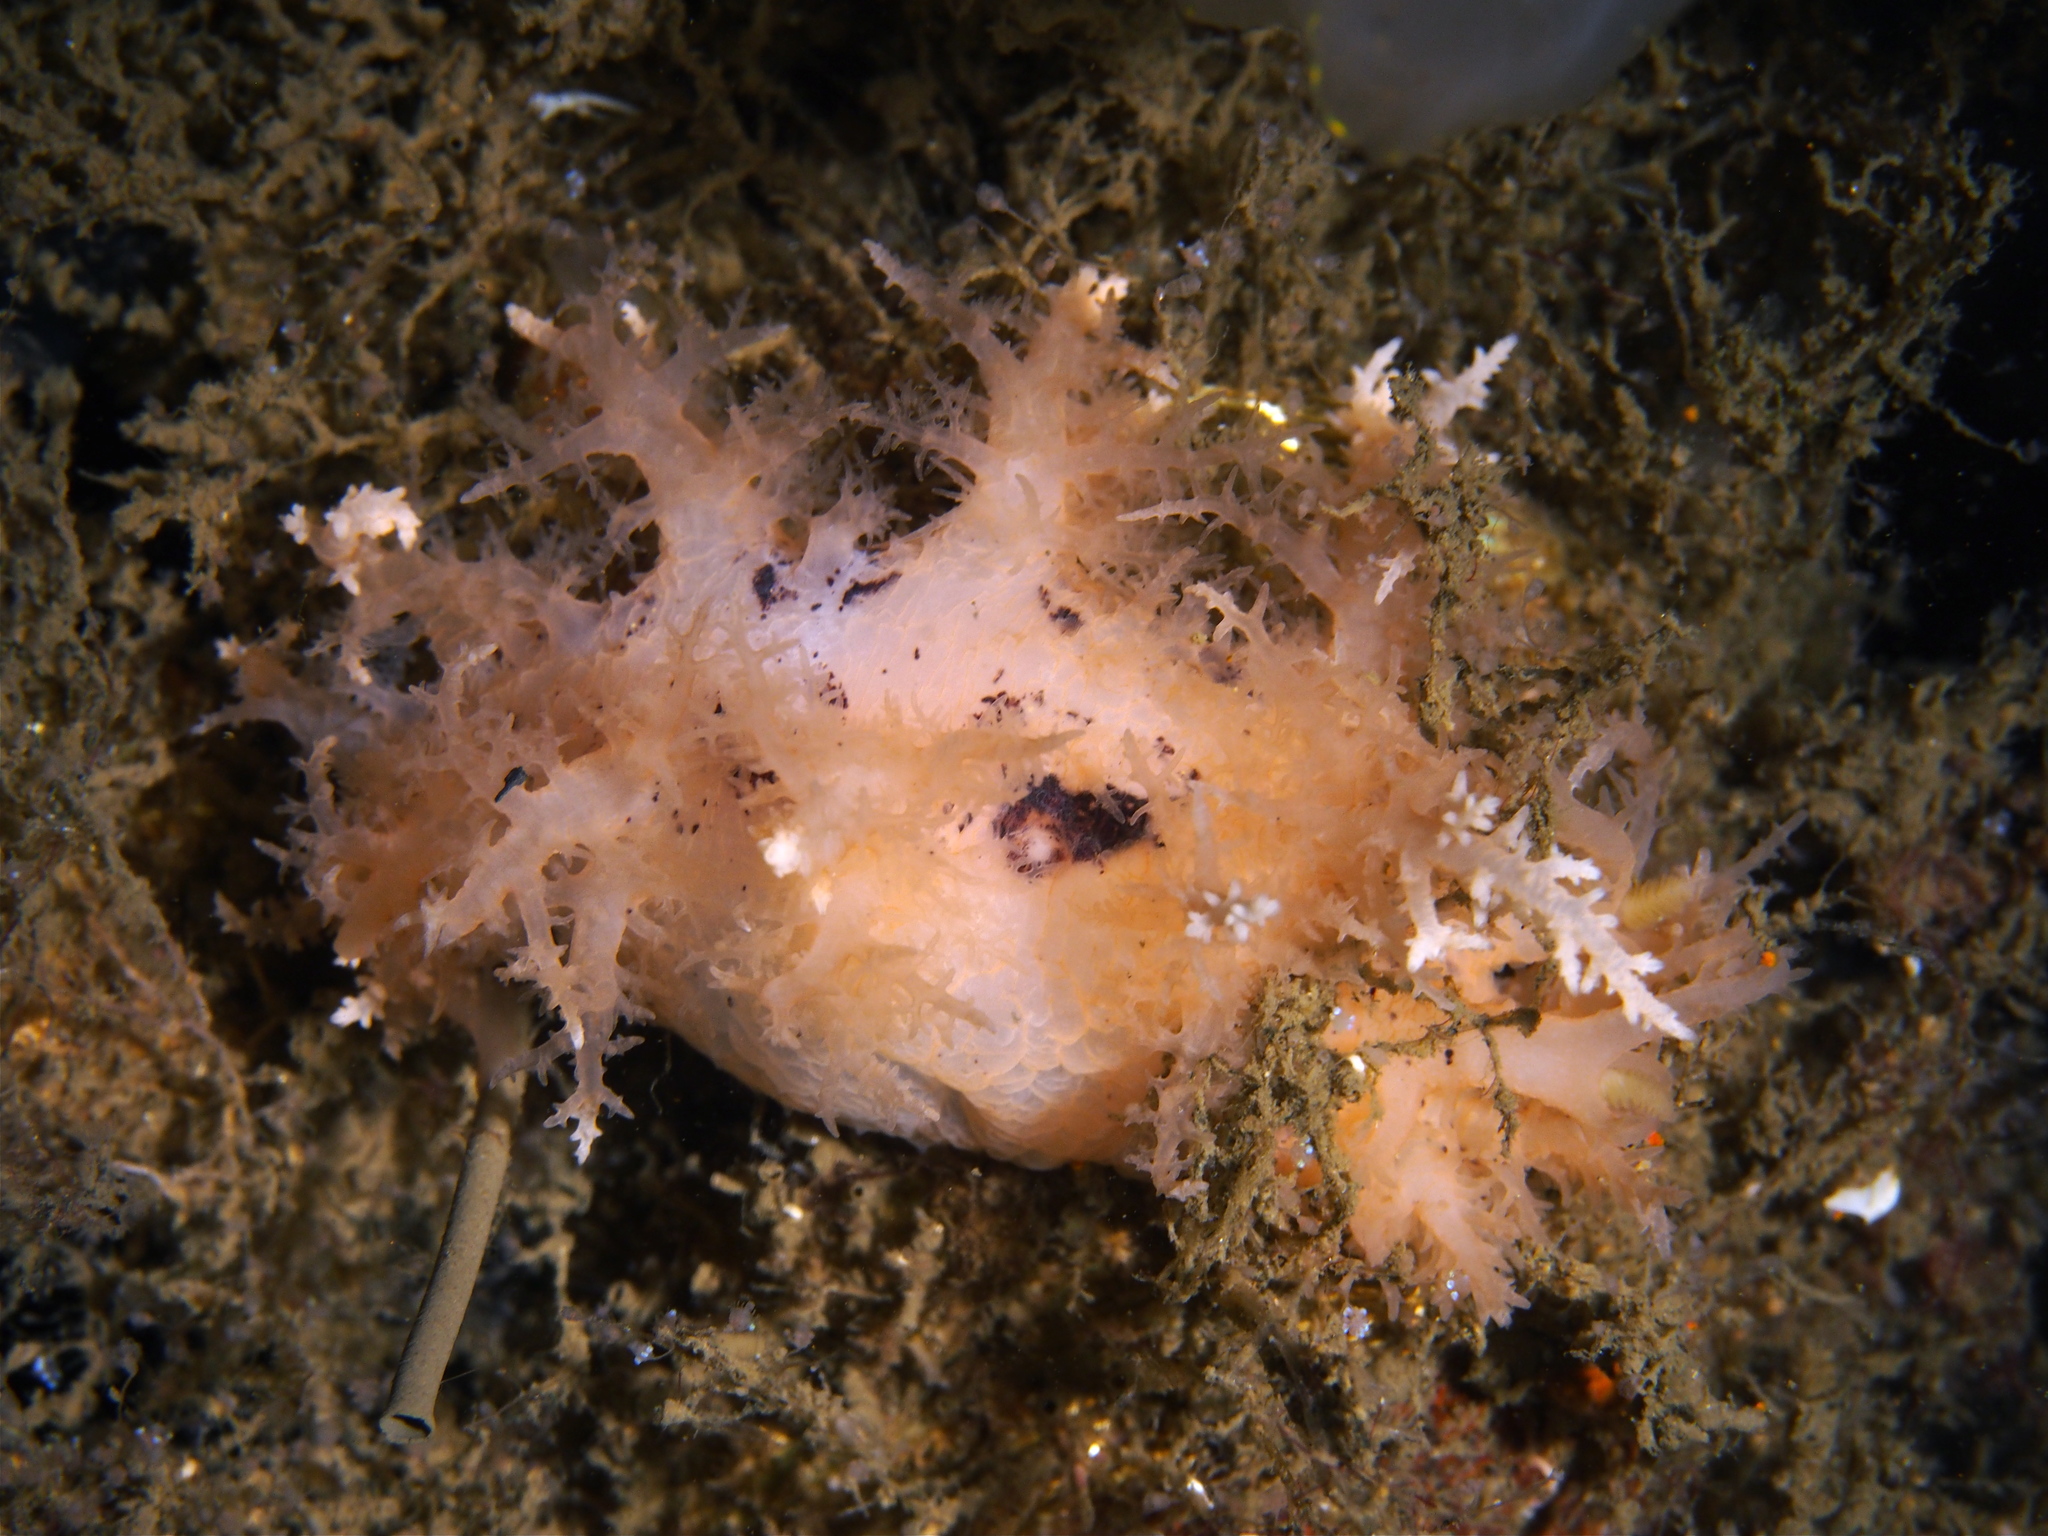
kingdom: Animalia
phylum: Mollusca
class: Gastropoda
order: Nudibranchia
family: Dendronotidae
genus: Dendronotus
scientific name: Dendronotus europaeus
